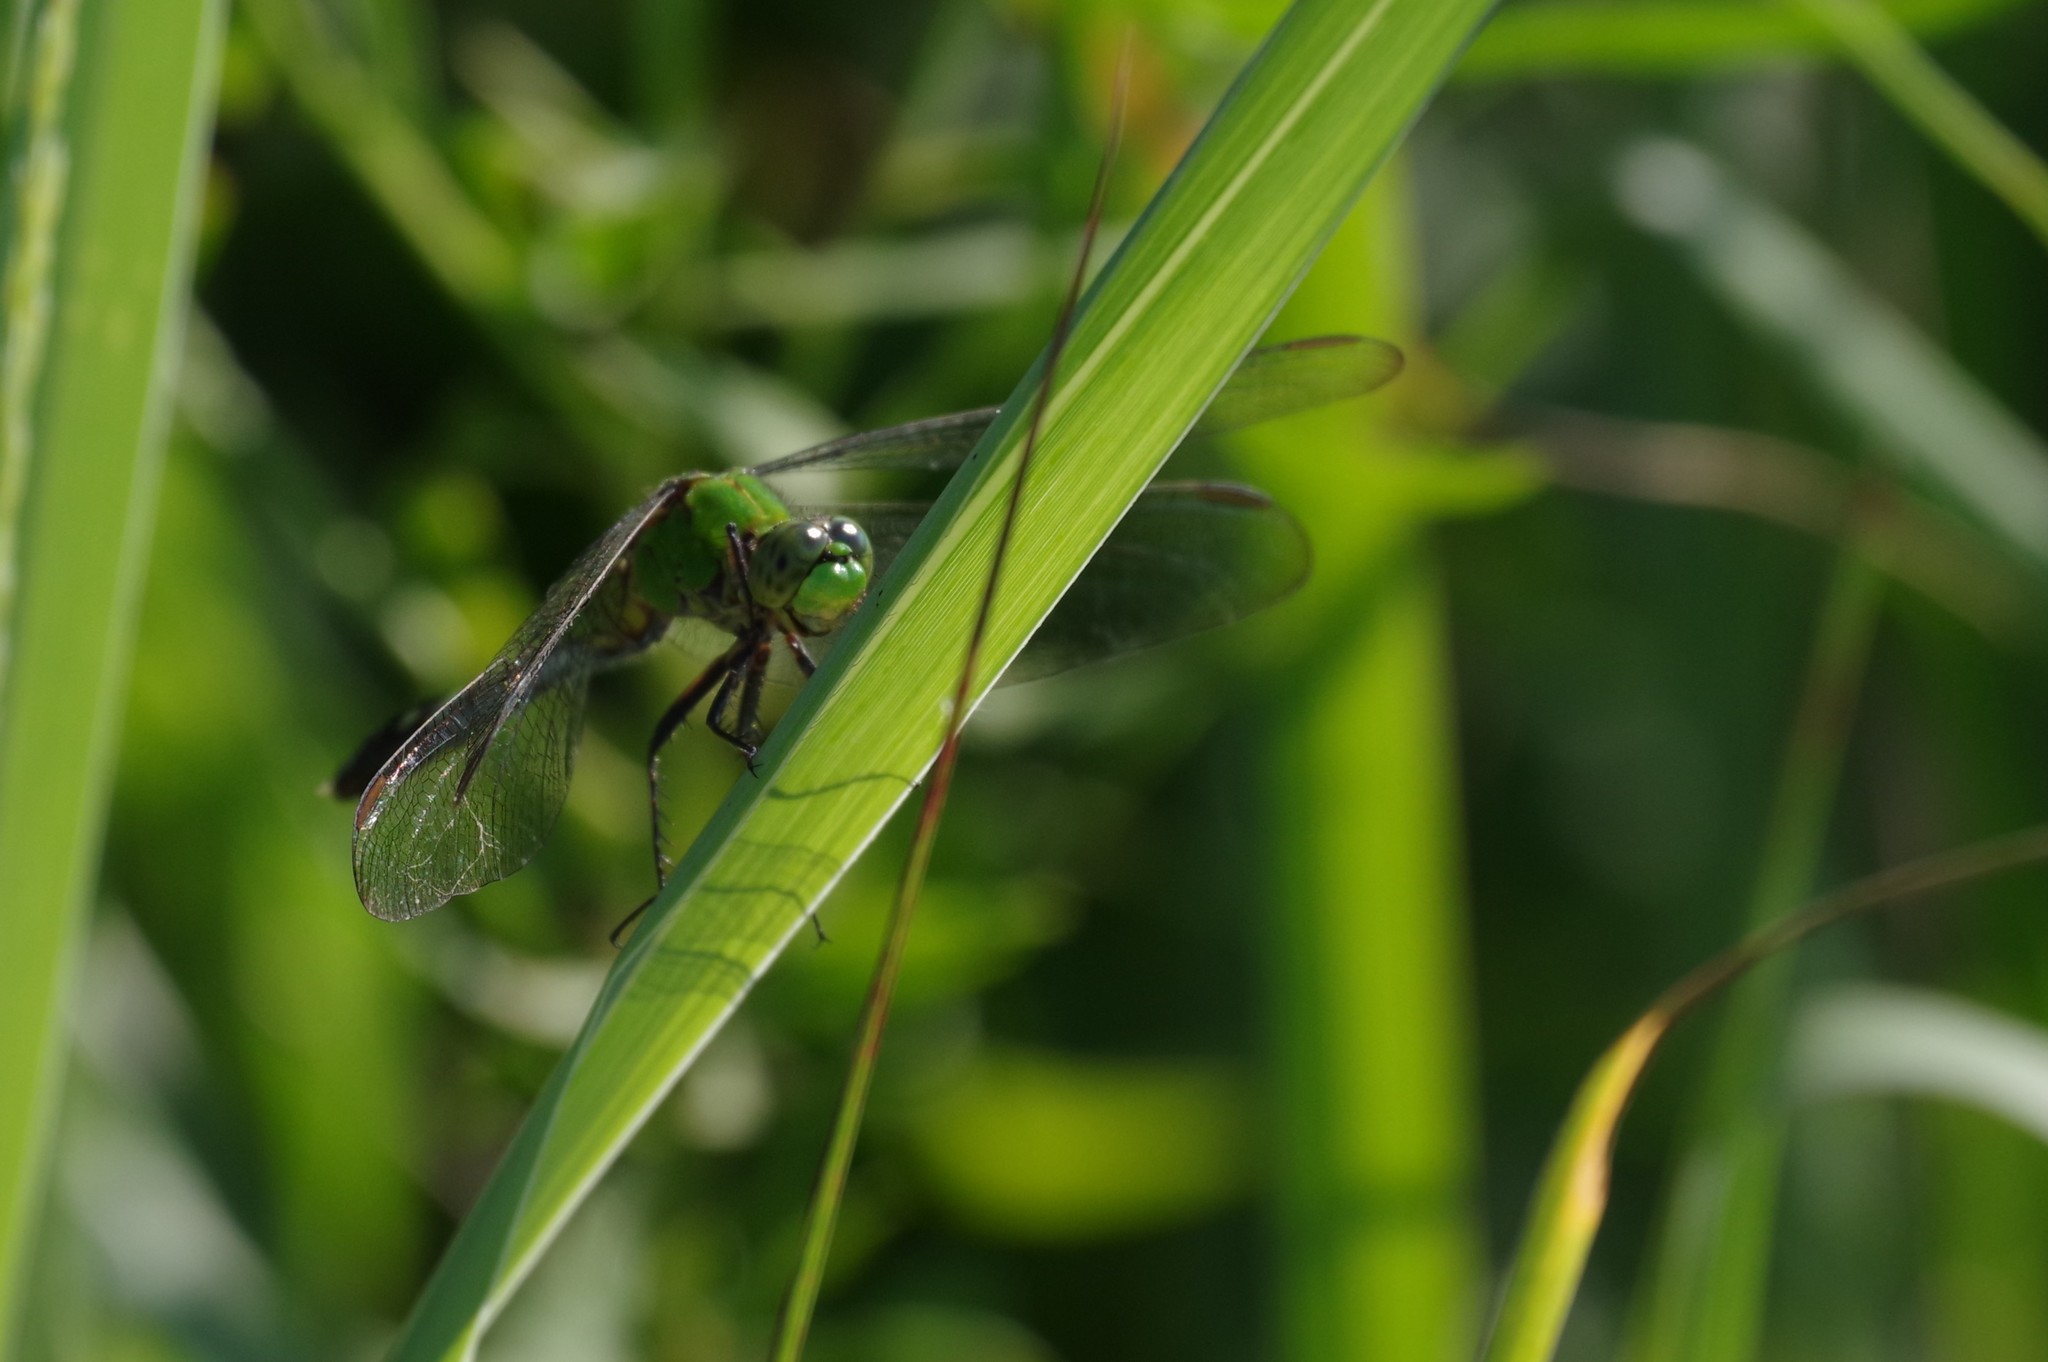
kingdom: Animalia
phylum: Arthropoda
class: Insecta
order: Odonata
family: Libellulidae
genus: Erythemis
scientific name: Erythemis simplicicollis
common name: Eastern pondhawk
